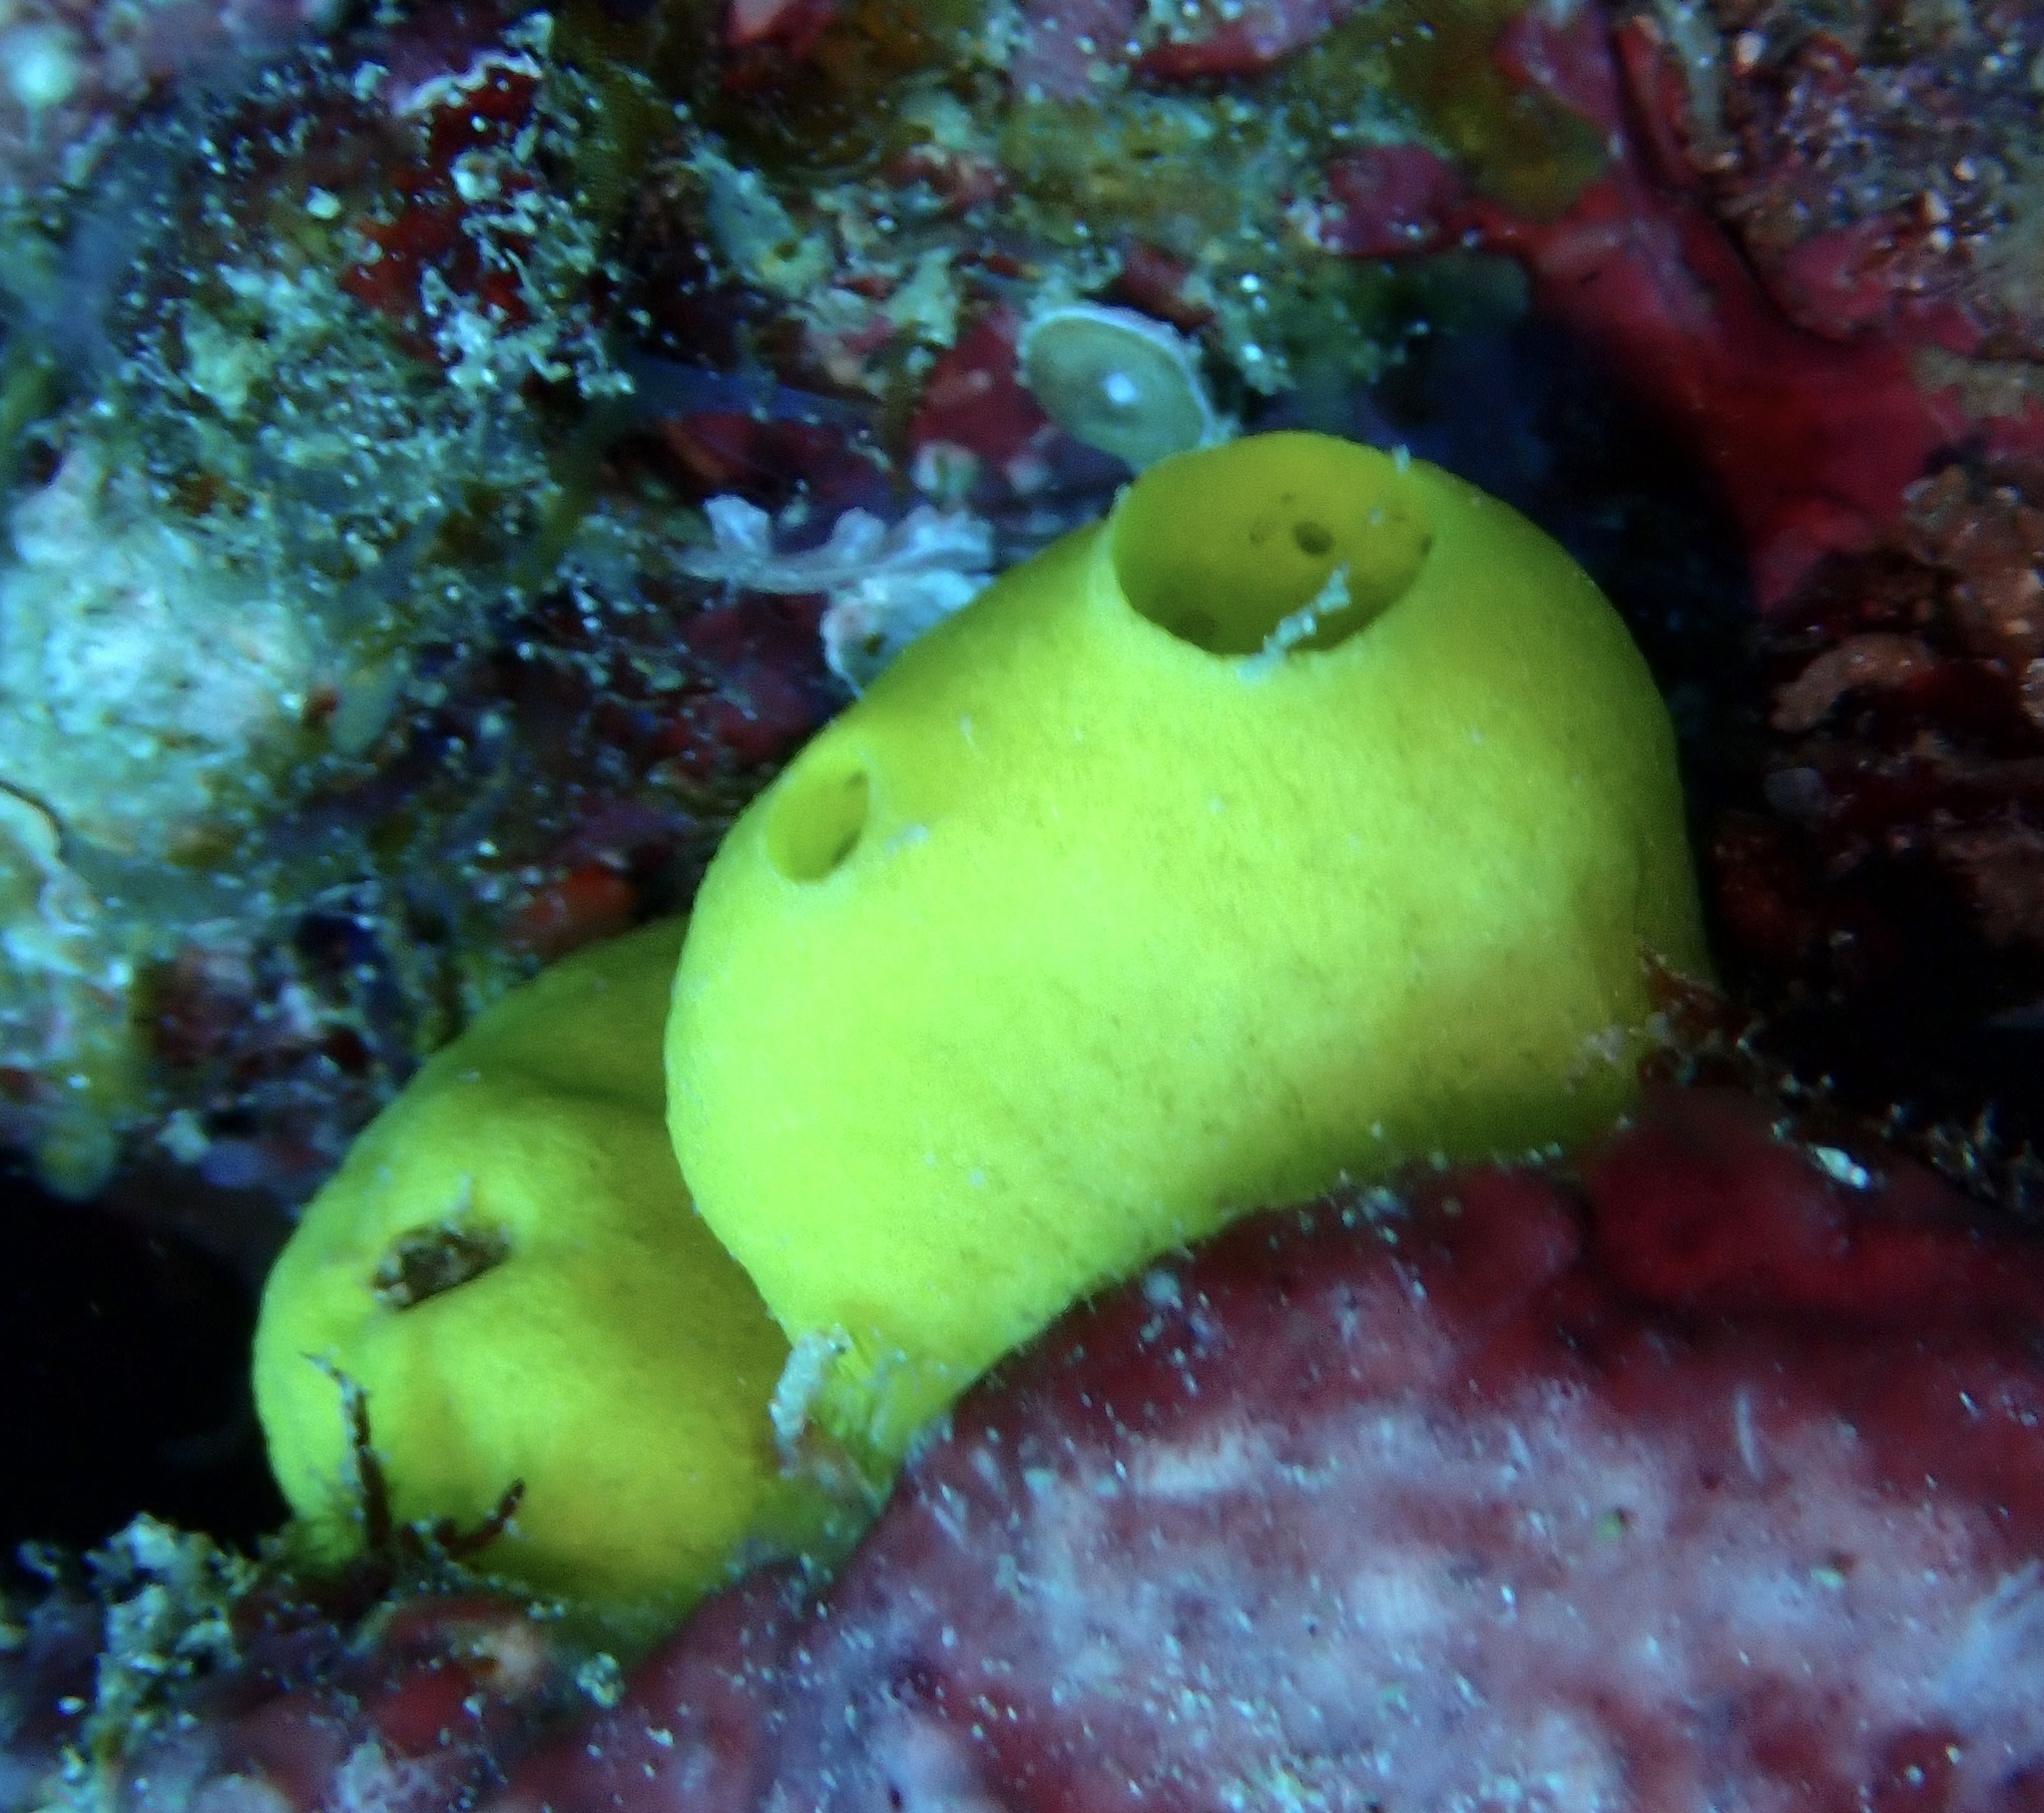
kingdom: Animalia
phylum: Porifera
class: Calcarea
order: Clathrinida
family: Leucettidae
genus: Leucetta
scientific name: Leucetta chagosensis
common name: Lemon sponge
